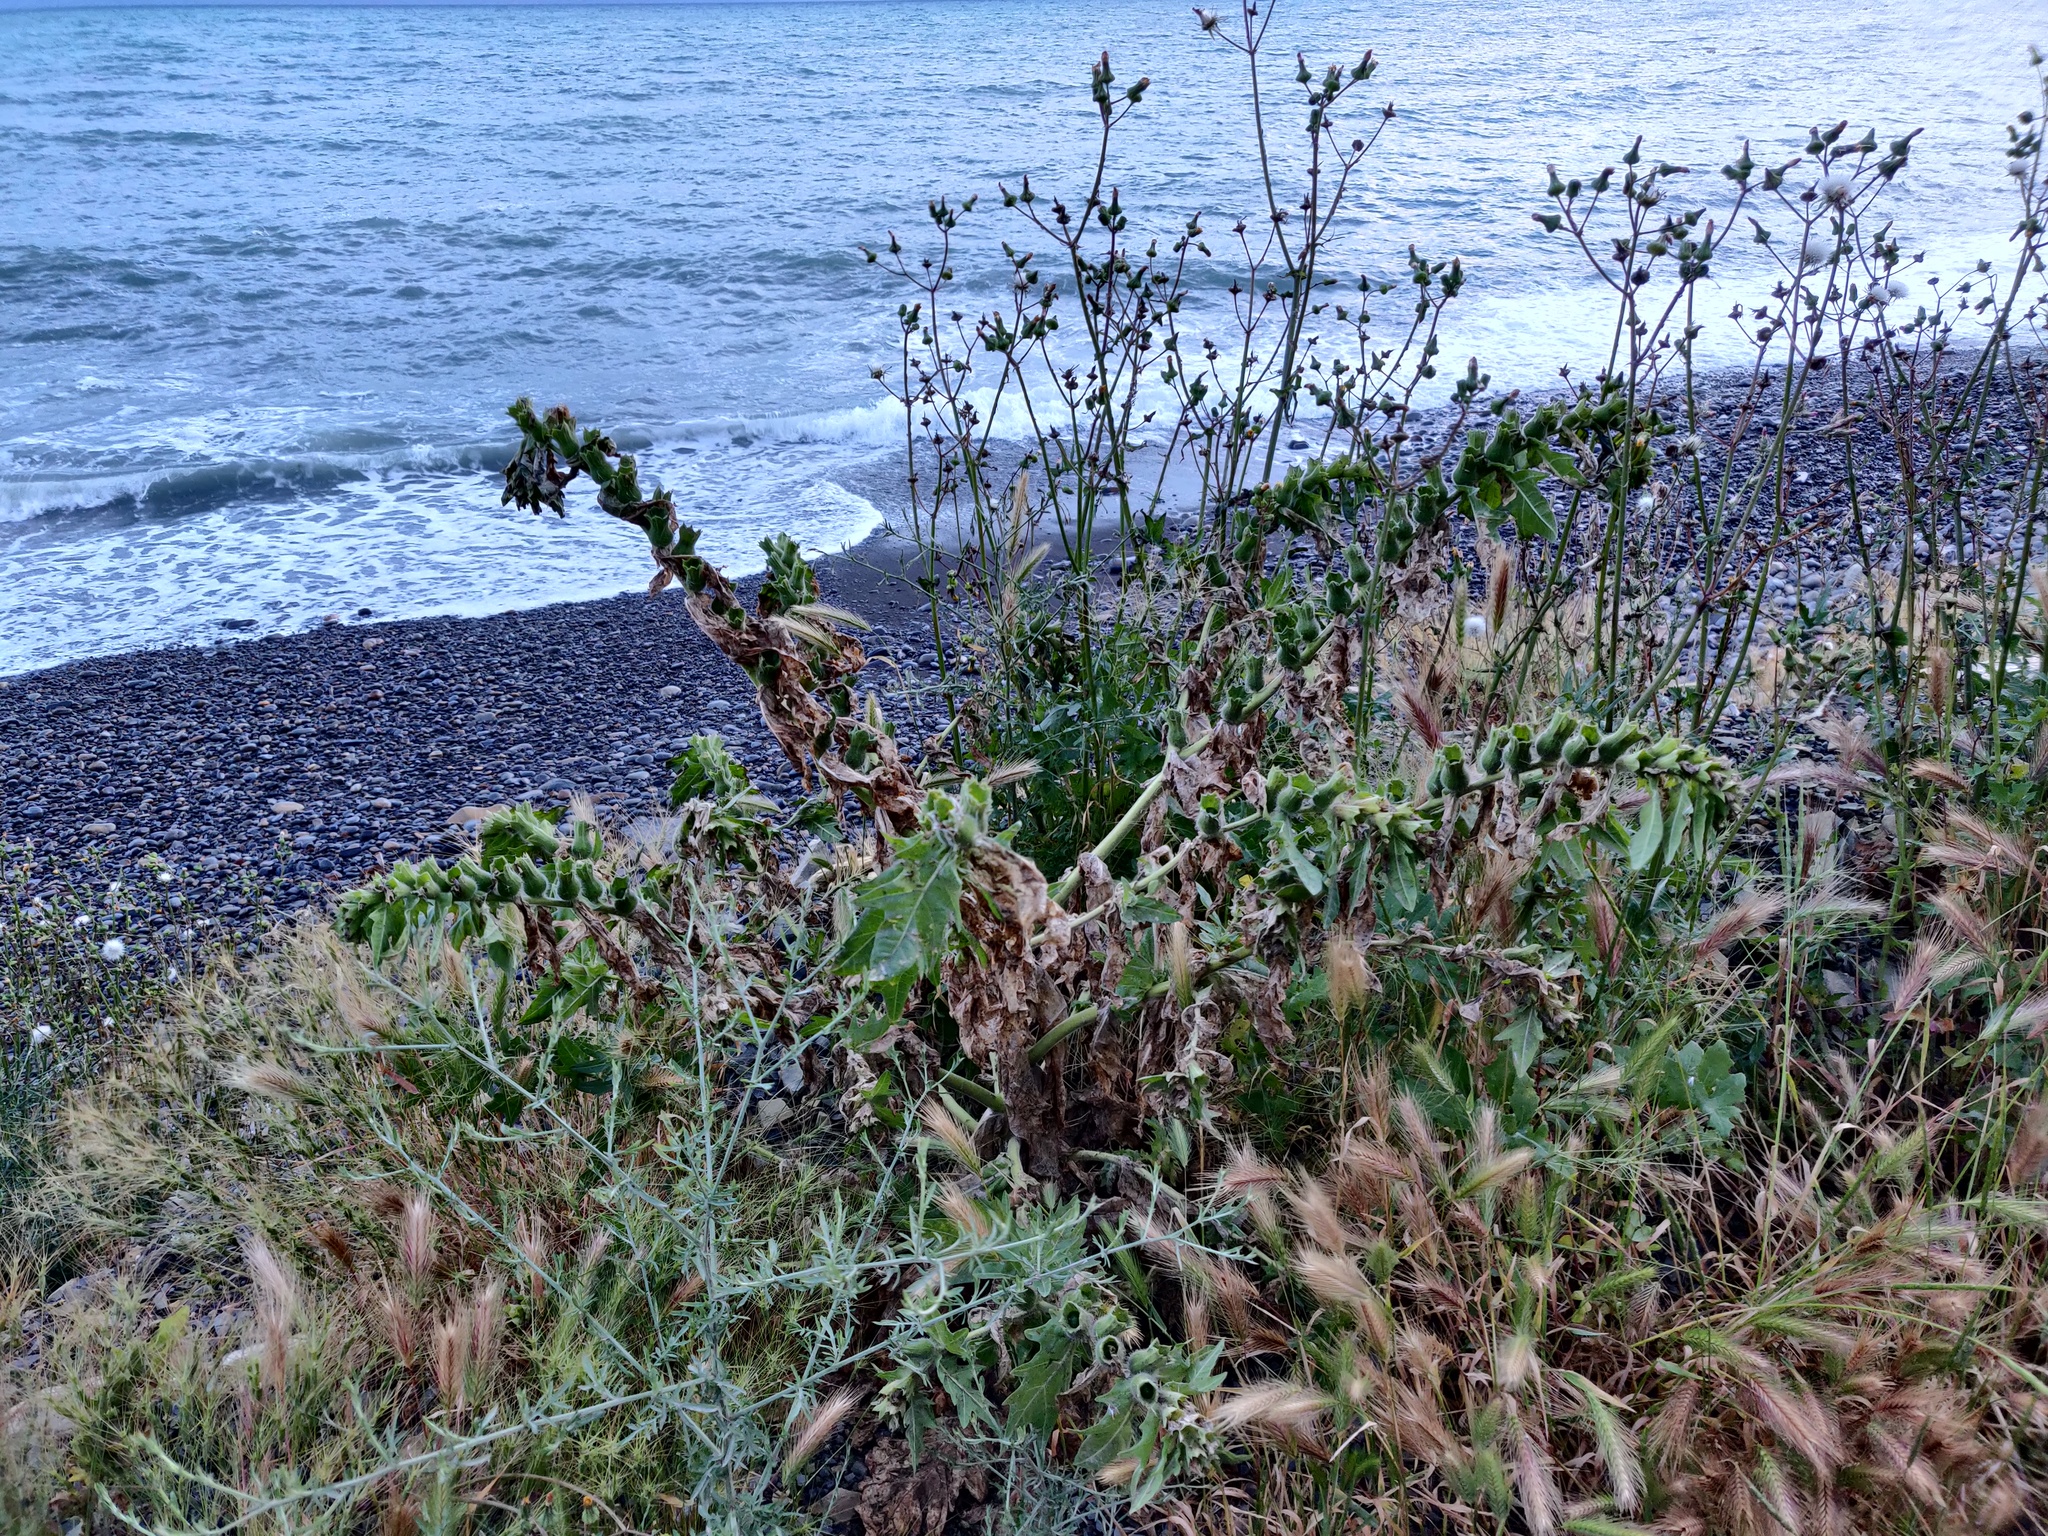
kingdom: Plantae
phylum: Tracheophyta
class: Magnoliopsida
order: Solanales
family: Solanaceae
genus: Hyoscyamus
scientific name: Hyoscyamus niger
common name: Henbane
